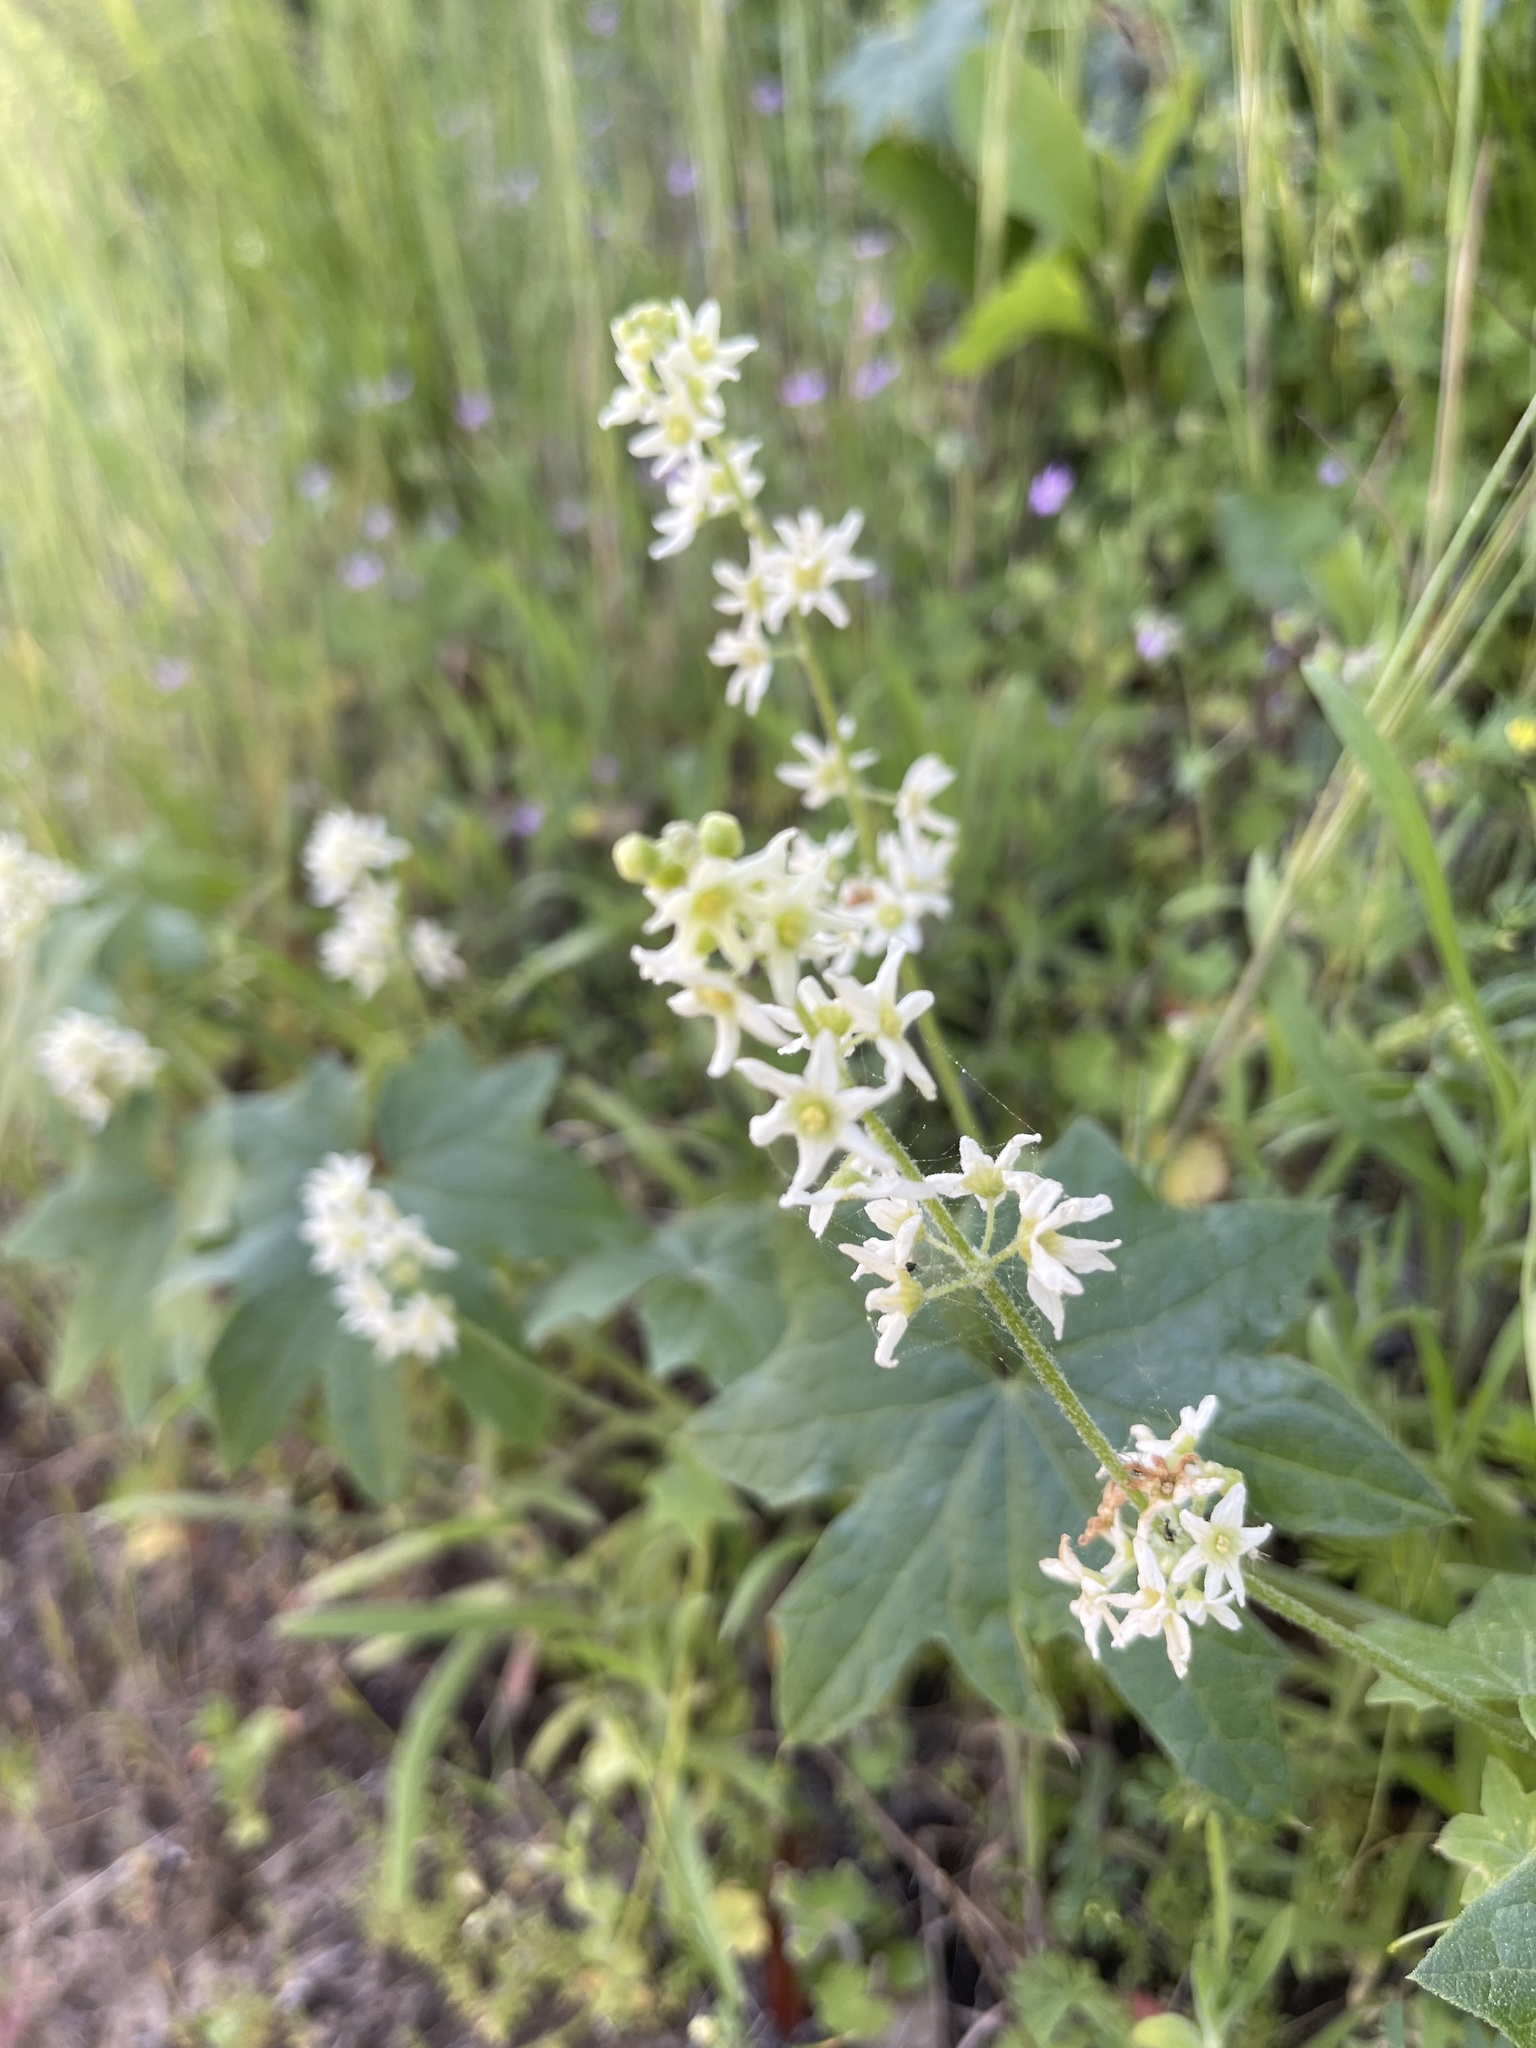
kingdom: Plantae
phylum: Tracheophyta
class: Magnoliopsida
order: Cucurbitales
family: Cucurbitaceae
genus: Marah
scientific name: Marah fabacea
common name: California manroot
